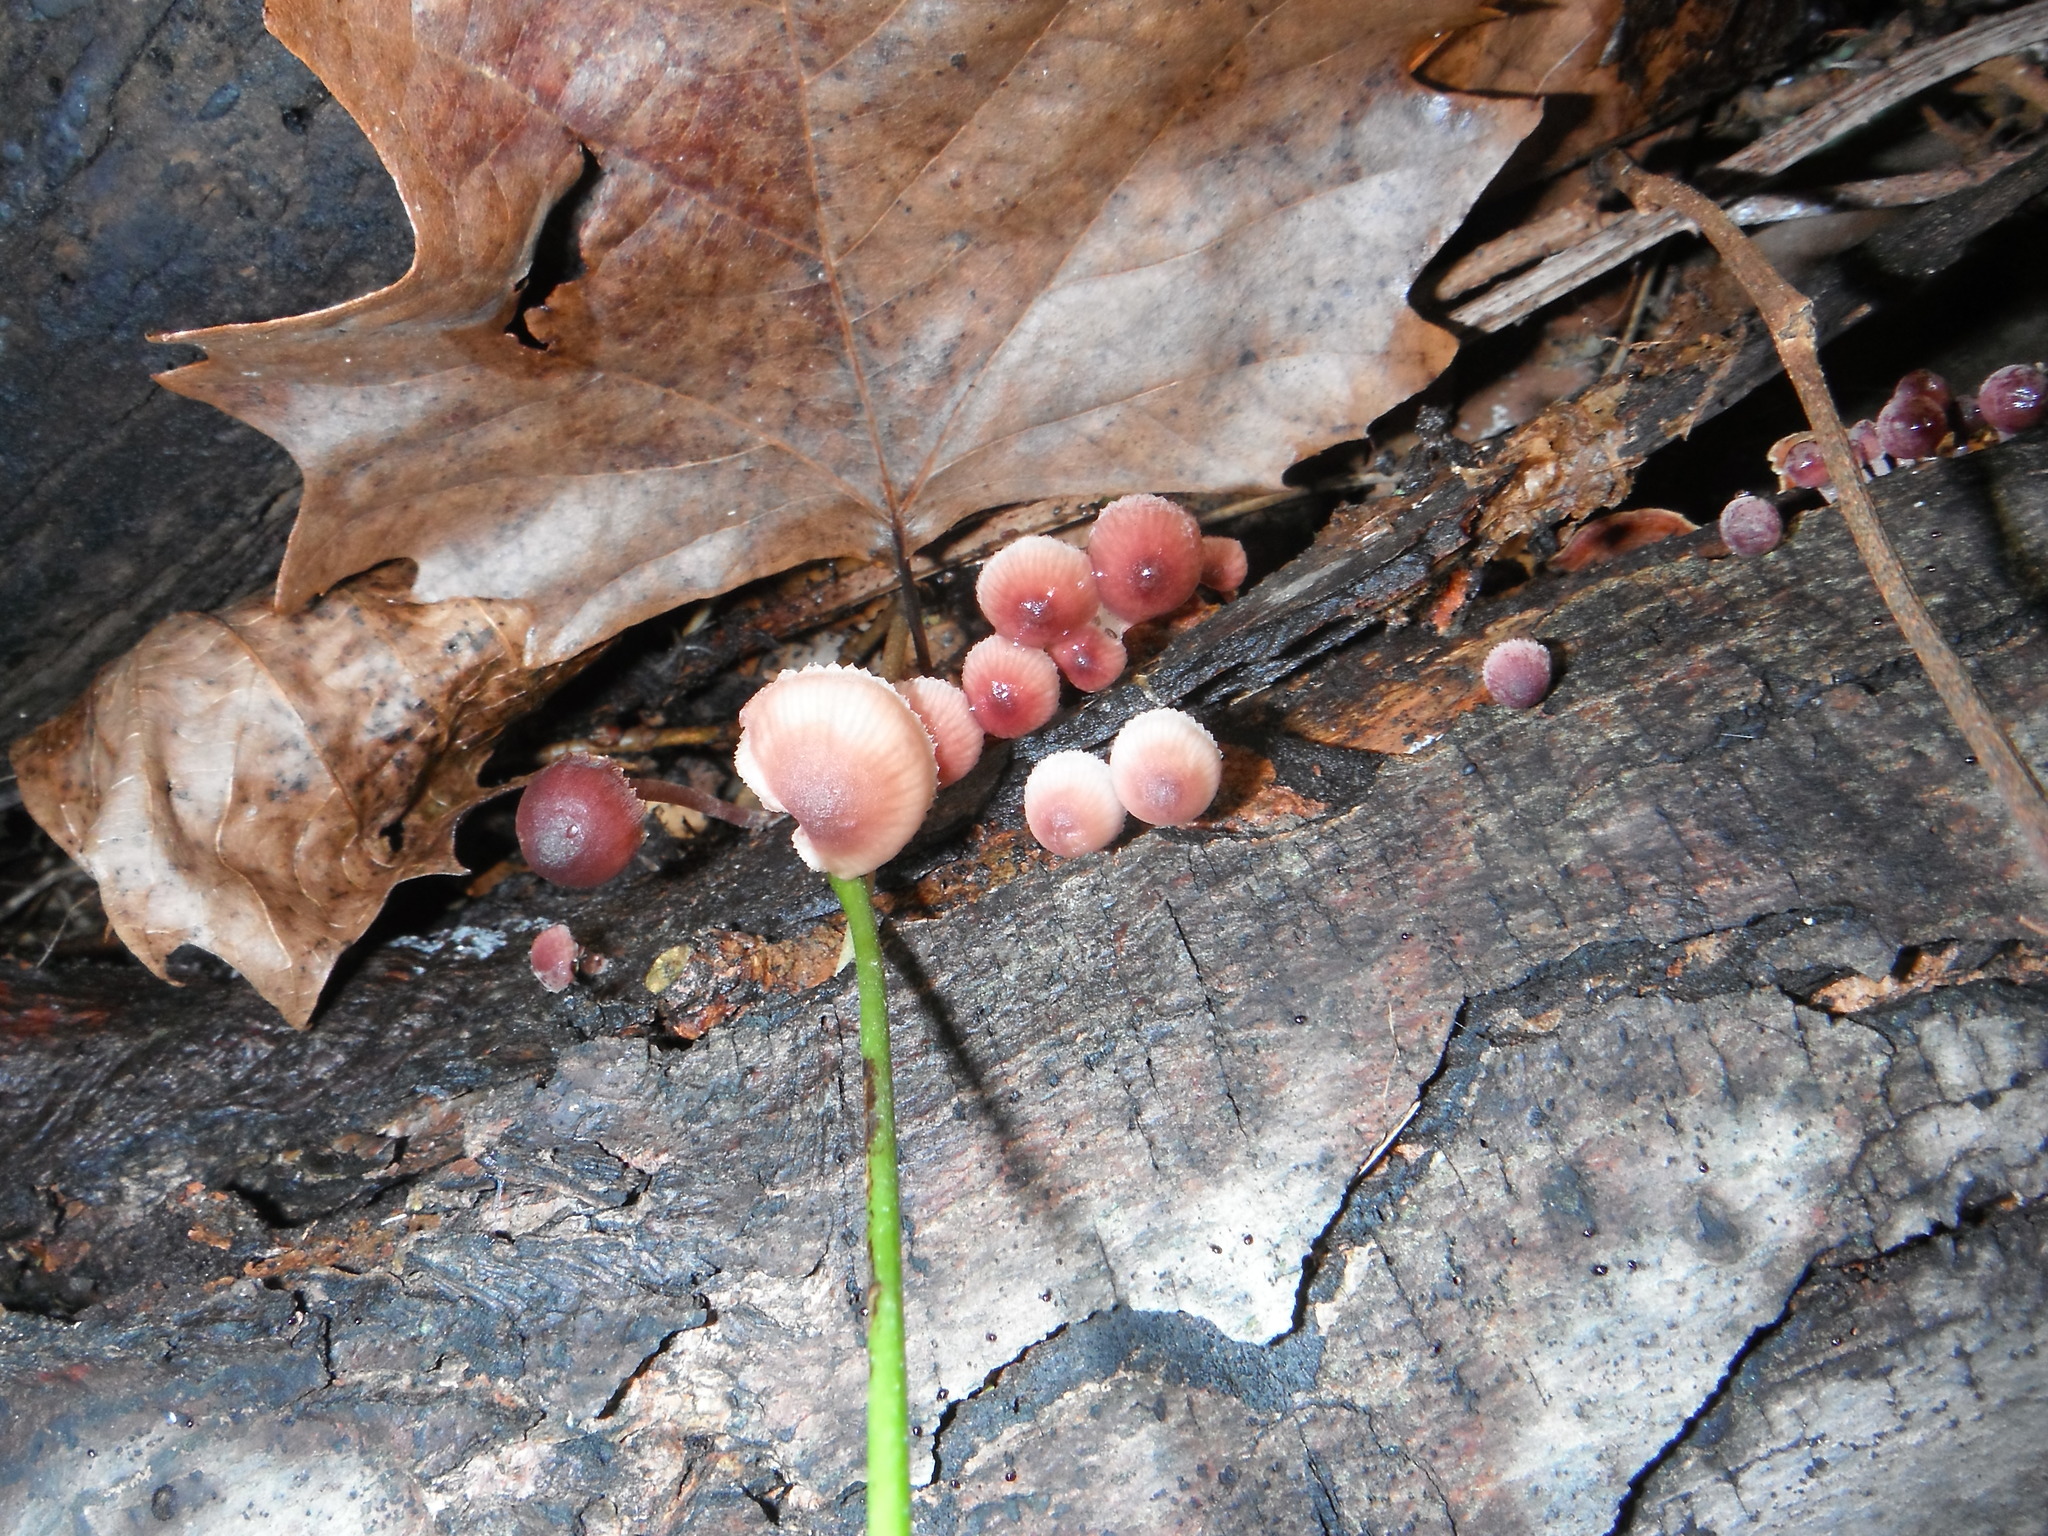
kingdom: Fungi
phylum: Basidiomycota
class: Agaricomycetes
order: Agaricales
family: Mycenaceae
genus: Mycena
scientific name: Mycena haematopus
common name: Burgundydrop bonnet
